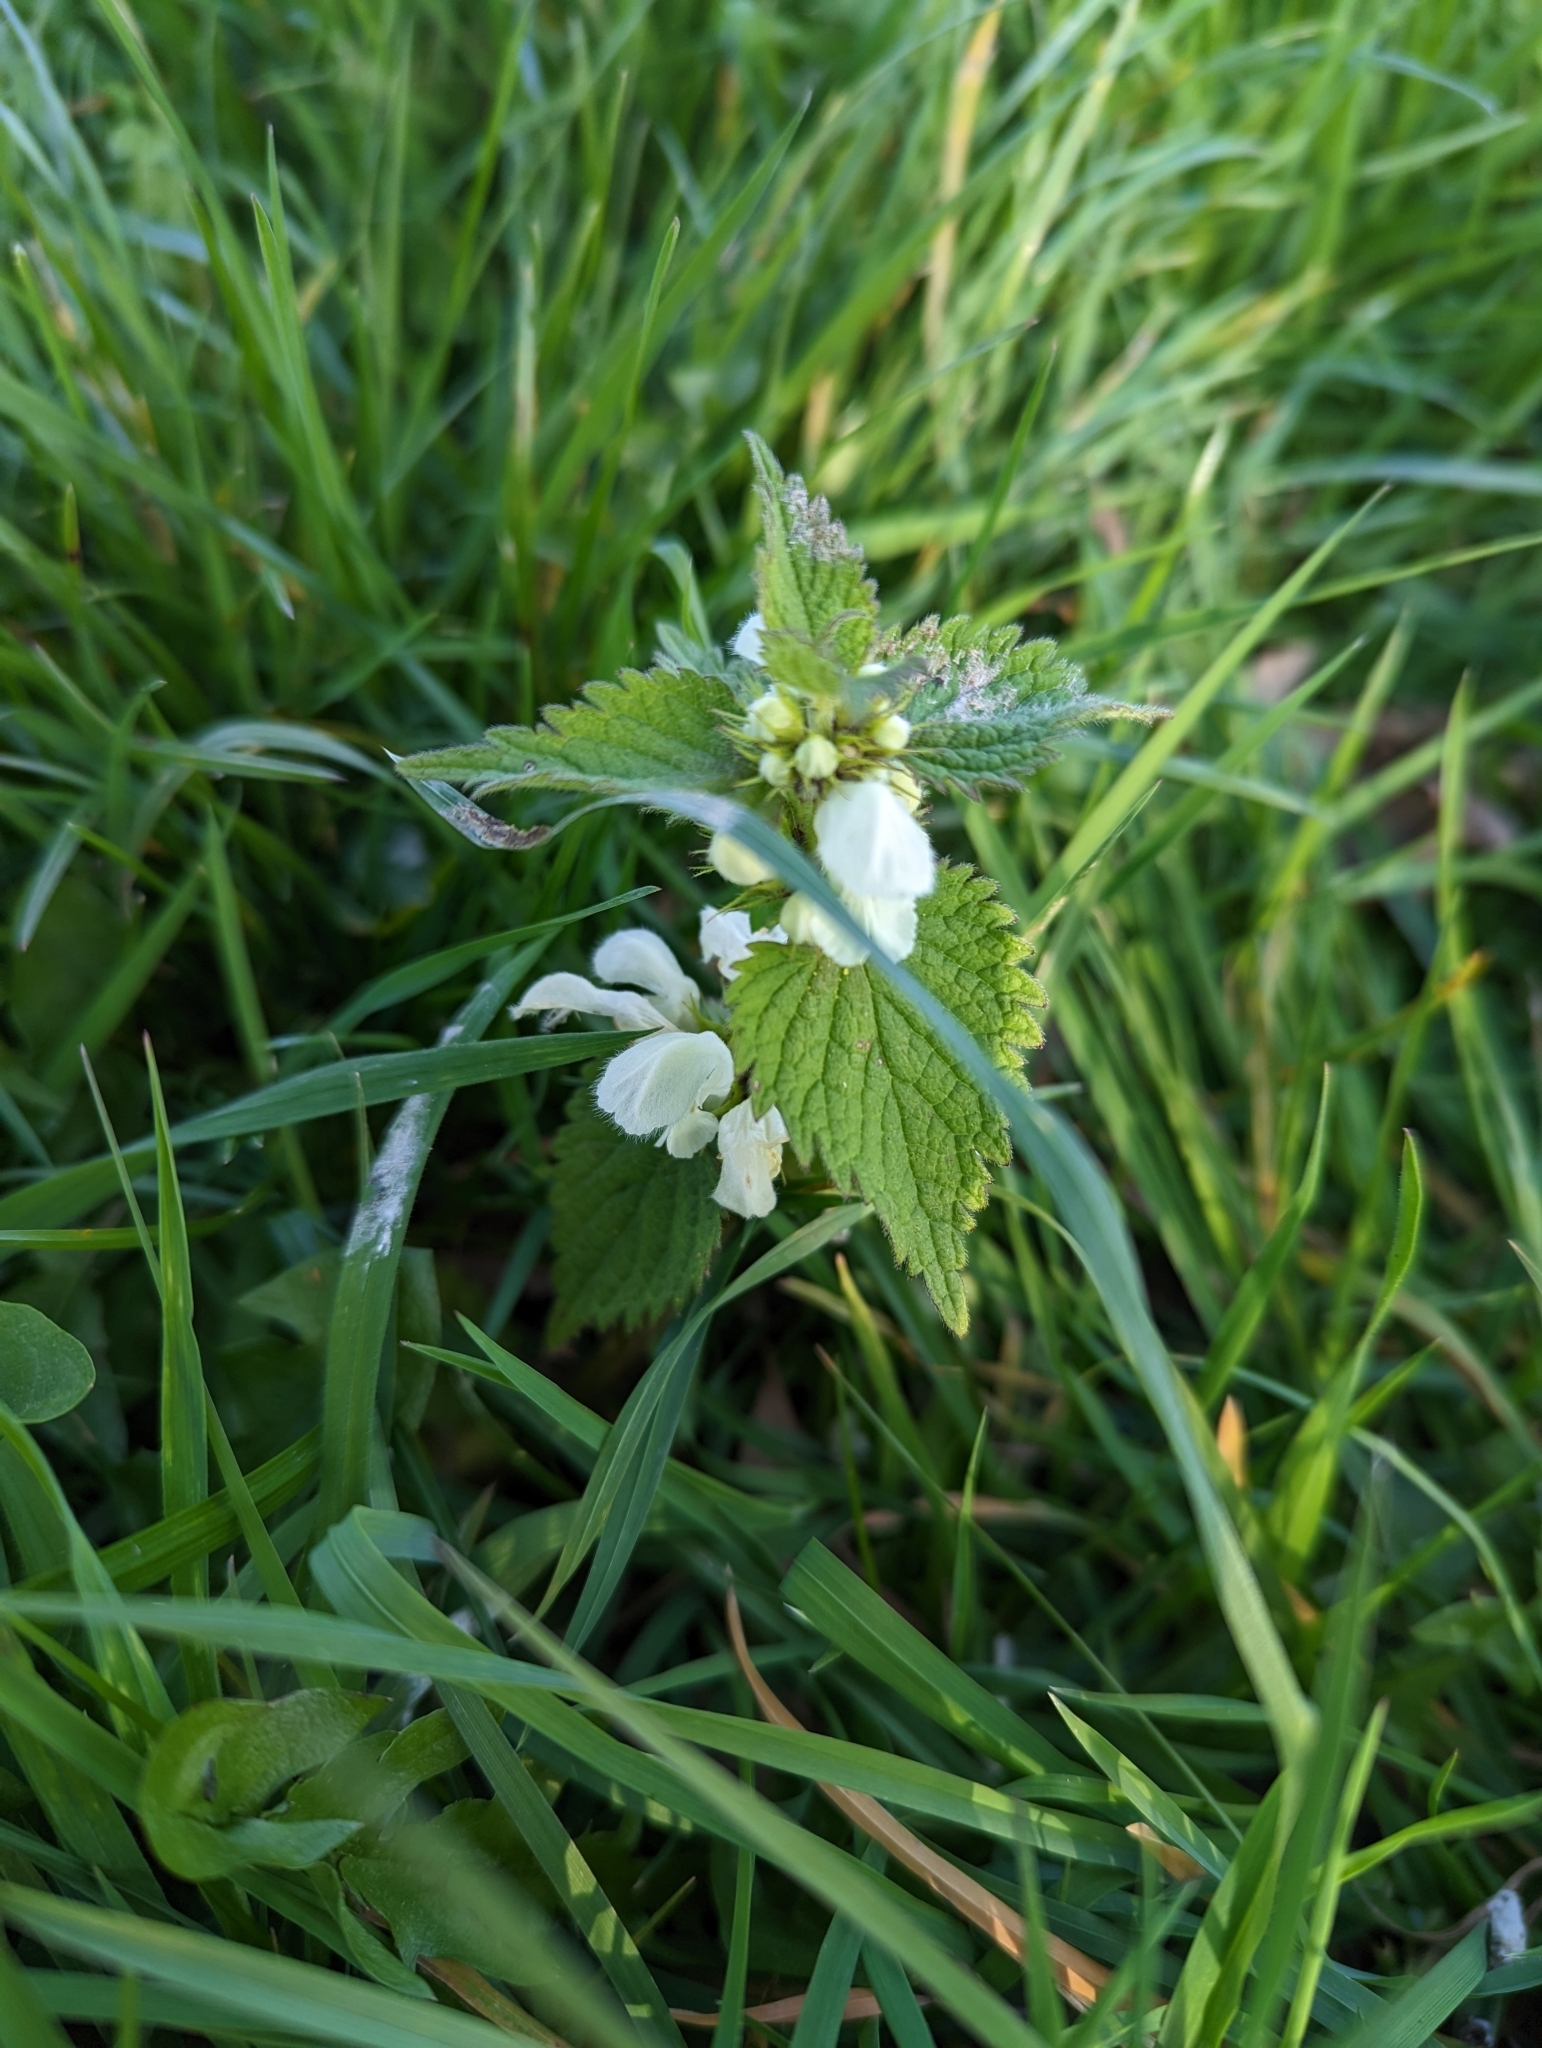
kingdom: Plantae
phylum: Tracheophyta
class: Magnoliopsida
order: Lamiales
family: Lamiaceae
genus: Lamium
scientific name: Lamium album
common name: White dead-nettle
